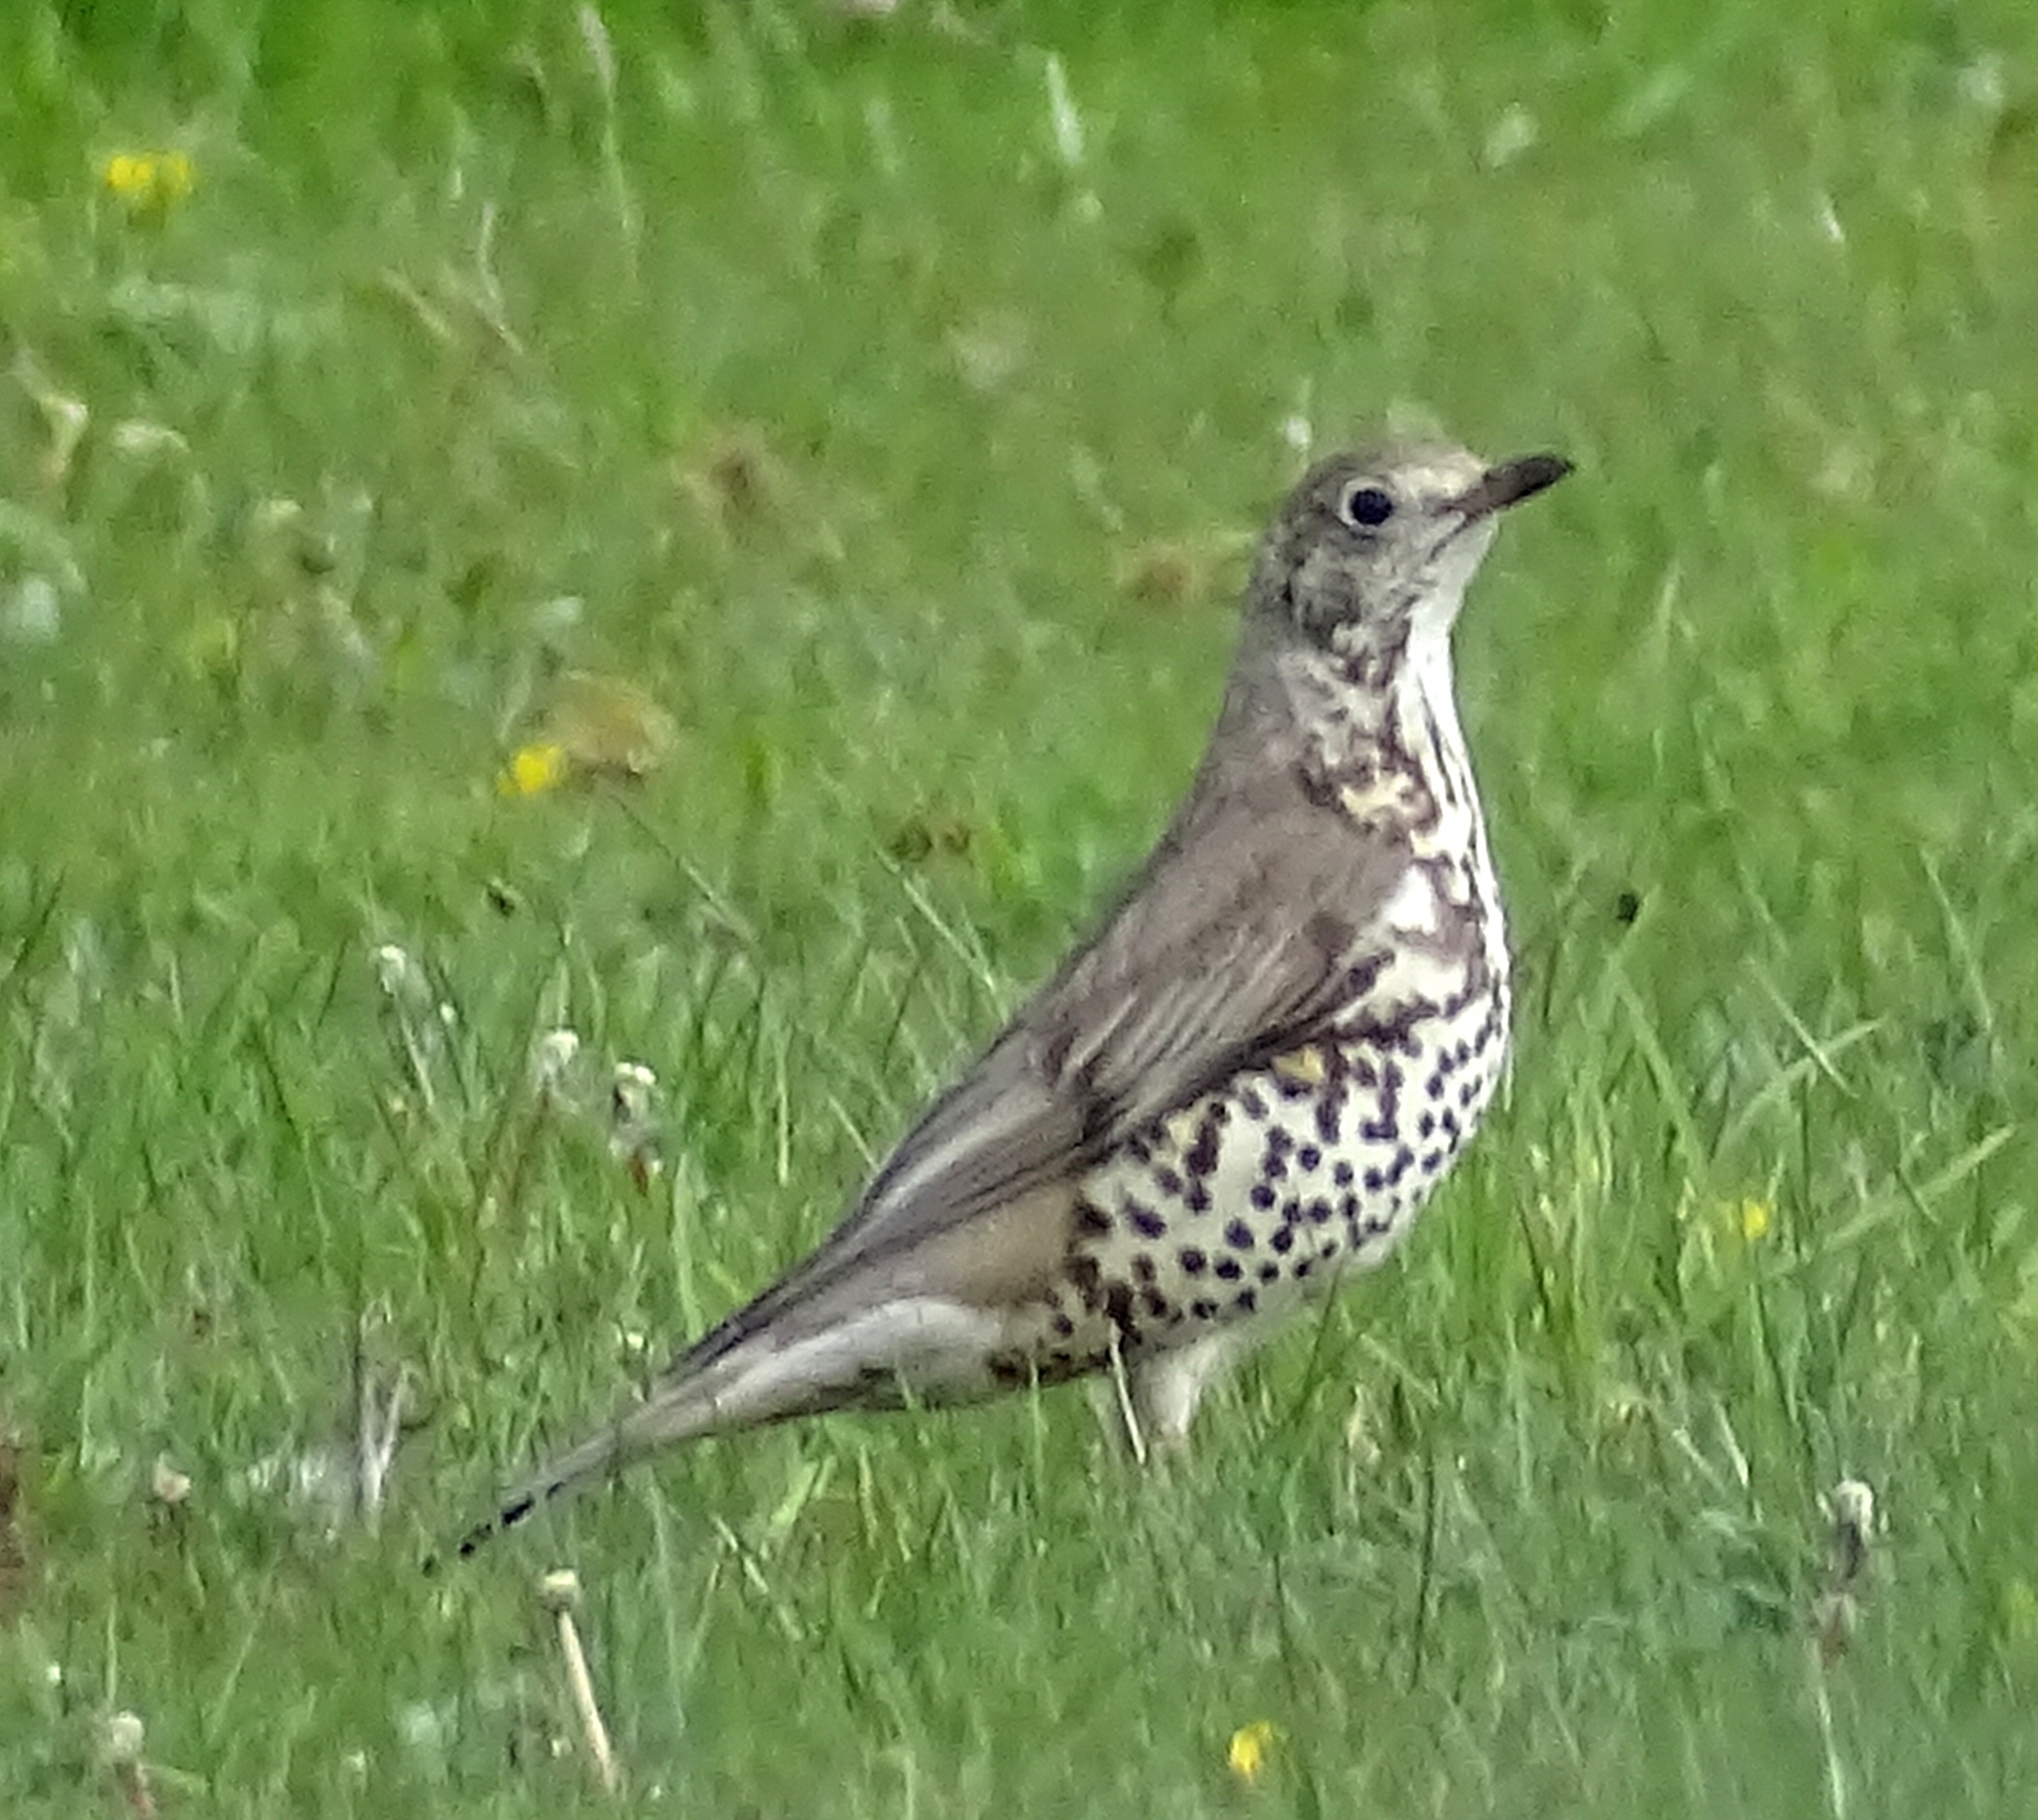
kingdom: Animalia
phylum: Chordata
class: Aves
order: Passeriformes
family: Turdidae
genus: Turdus
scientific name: Turdus viscivorus
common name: Mistle thrush
